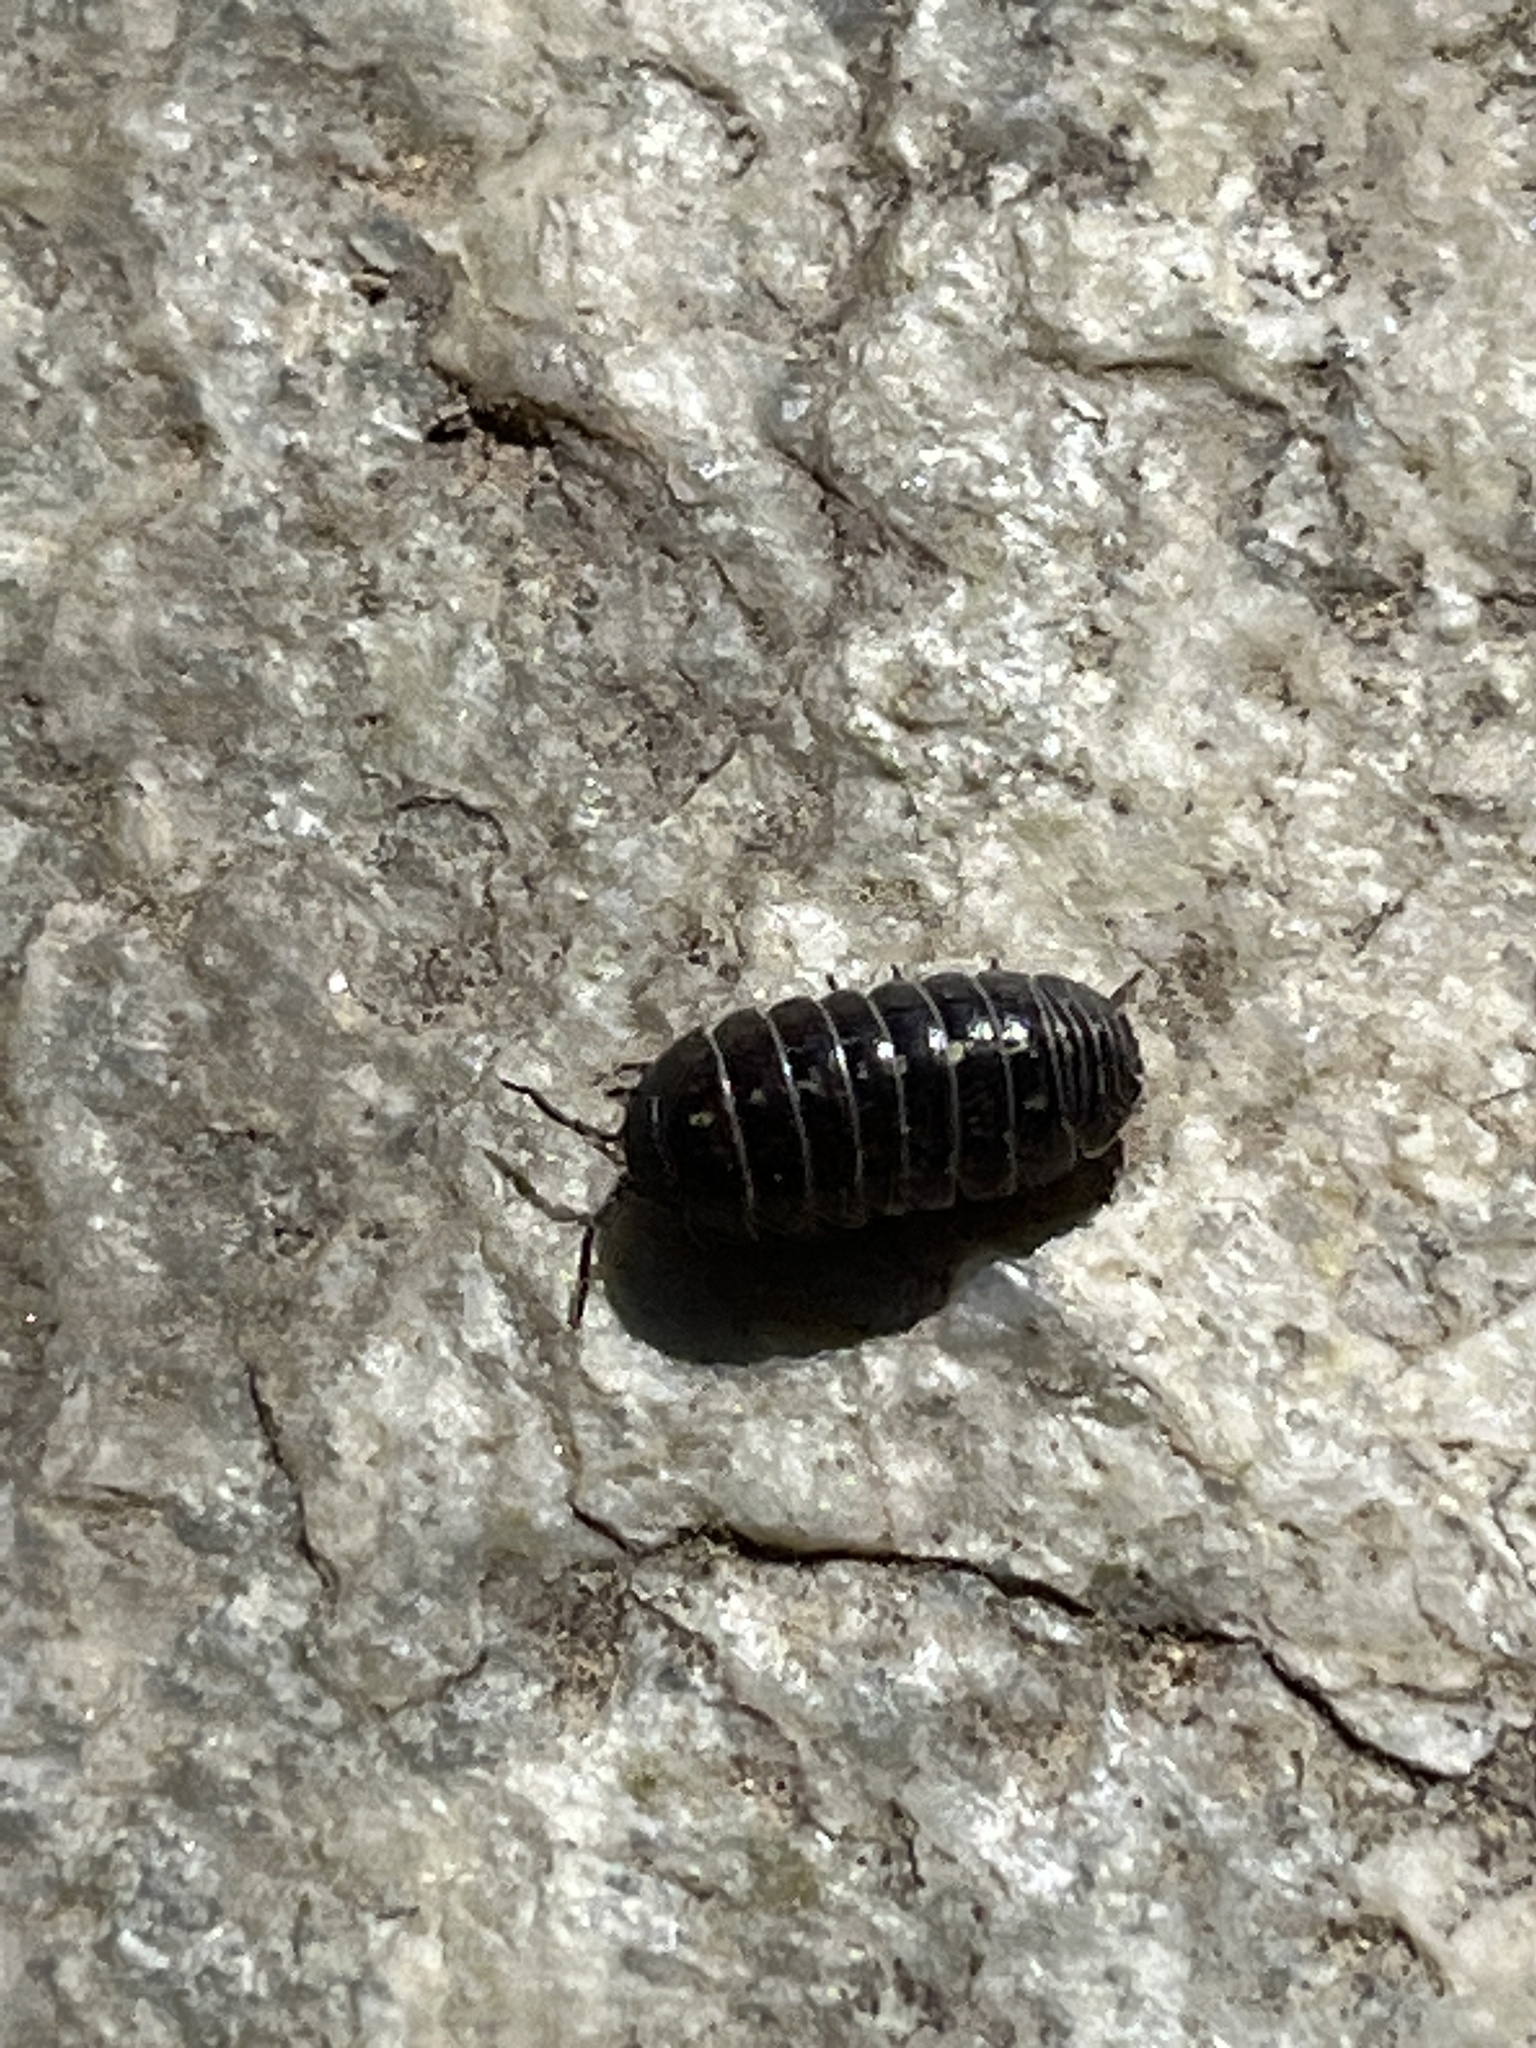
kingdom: Animalia
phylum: Arthropoda
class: Malacostraca
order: Isopoda
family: Armadillidiidae
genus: Armadillidium
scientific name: Armadillidium vulgare
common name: Common pill woodlouse
